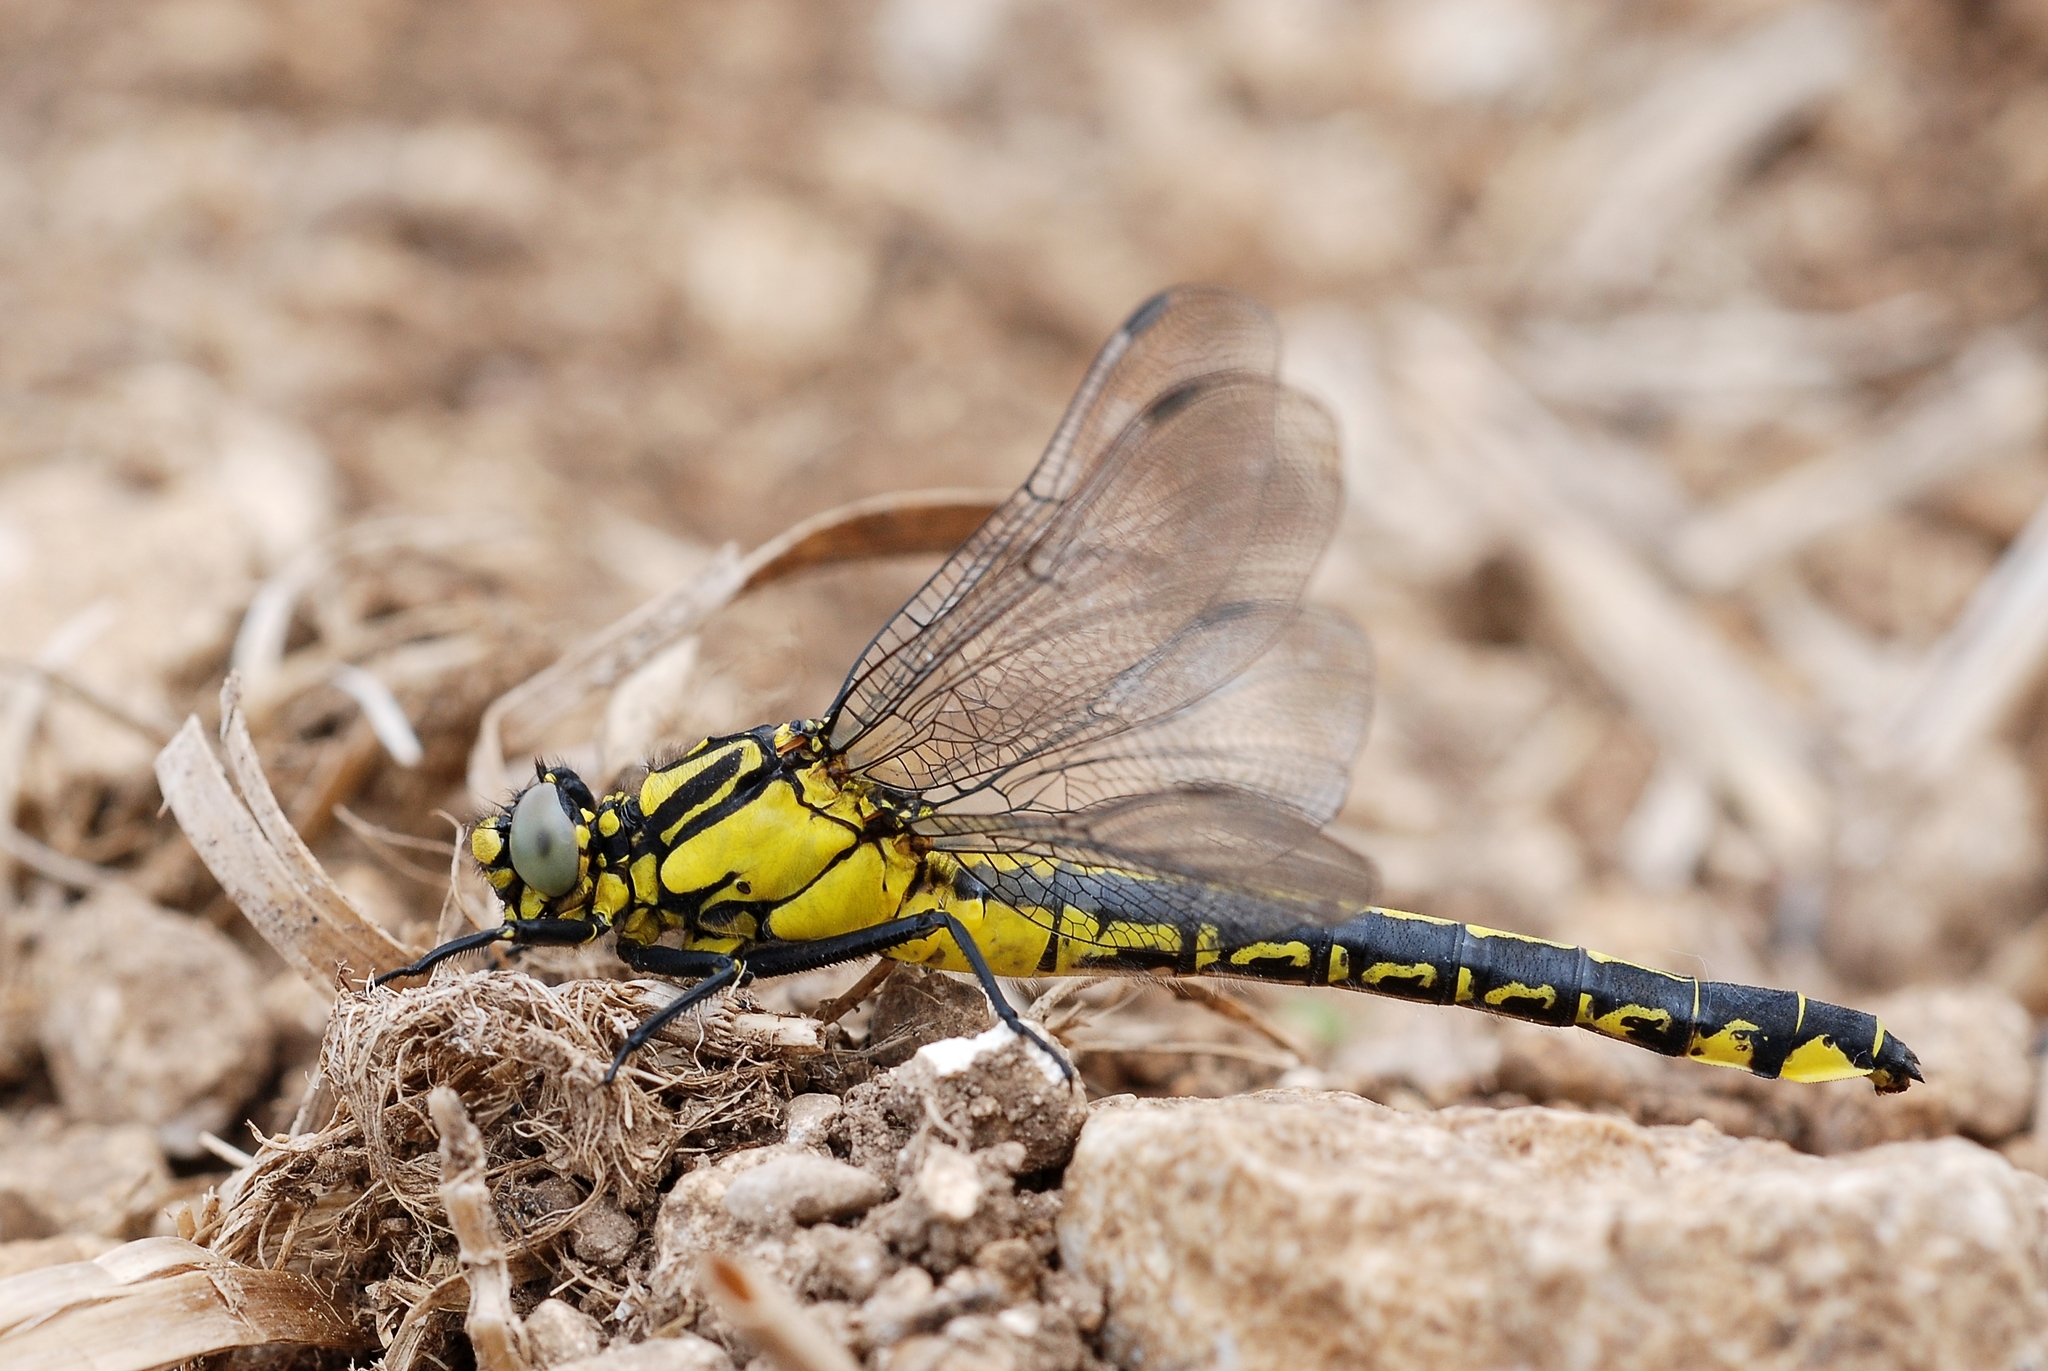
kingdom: Animalia
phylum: Arthropoda
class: Insecta
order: Odonata
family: Gomphidae
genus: Gomphus
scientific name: Gomphus vulgatissimus
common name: Club-tailed dragonfly
